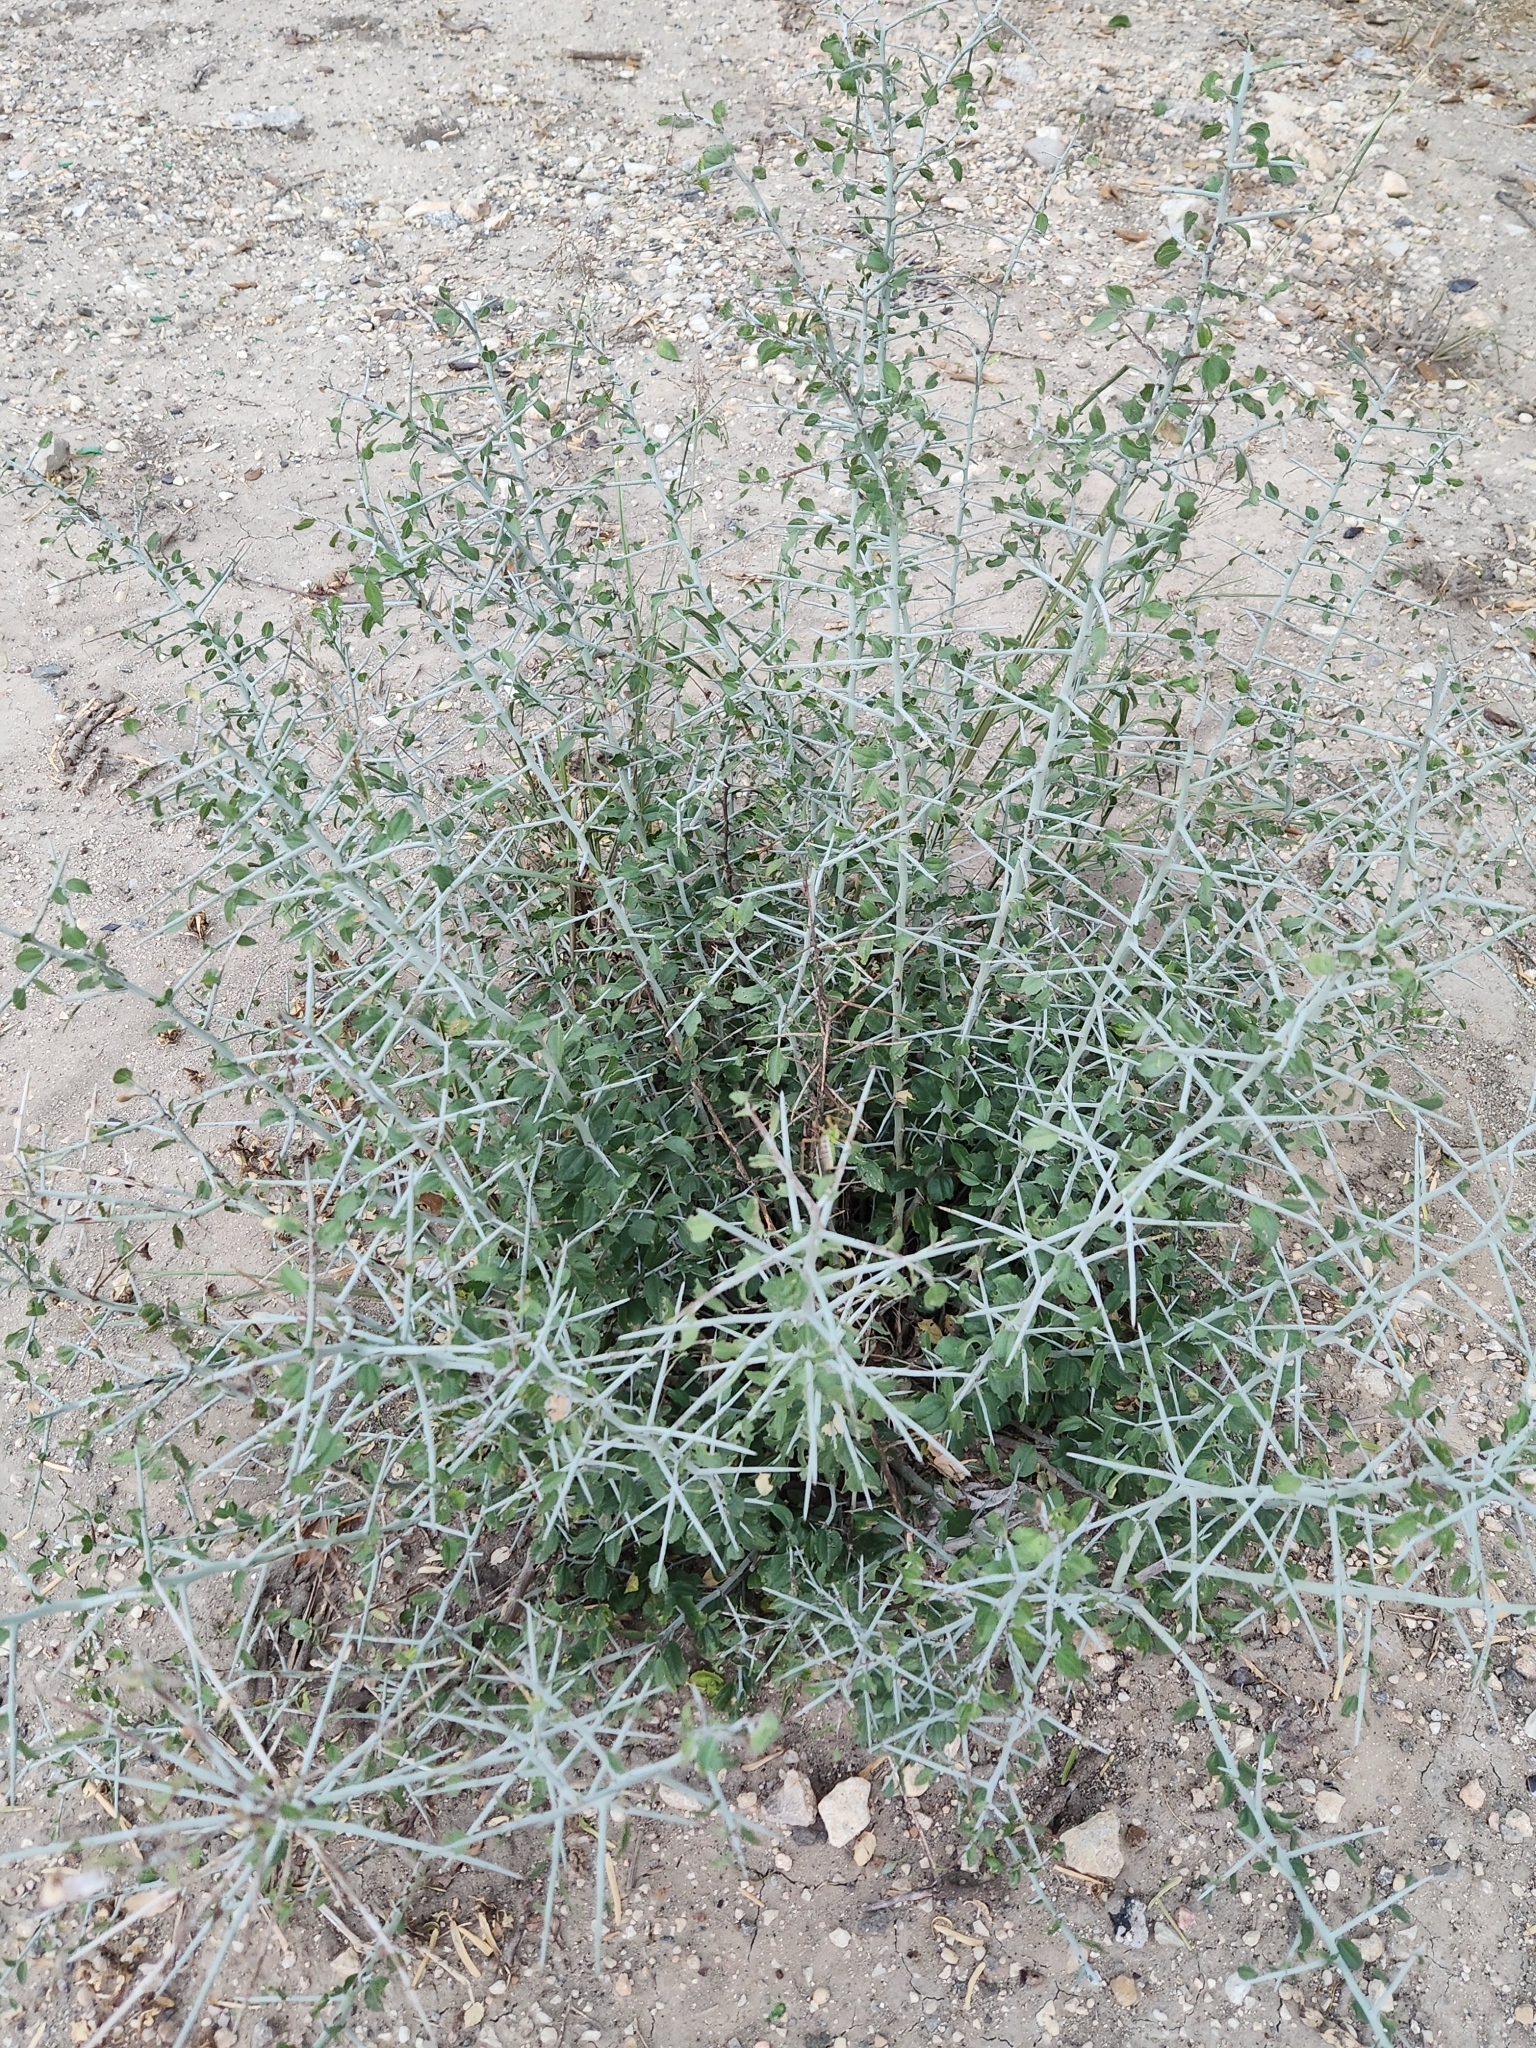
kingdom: Plantae
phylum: Tracheophyta
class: Magnoliopsida
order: Rosales
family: Rhamnaceae
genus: Sarcomphalus
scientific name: Sarcomphalus obtusifolius
